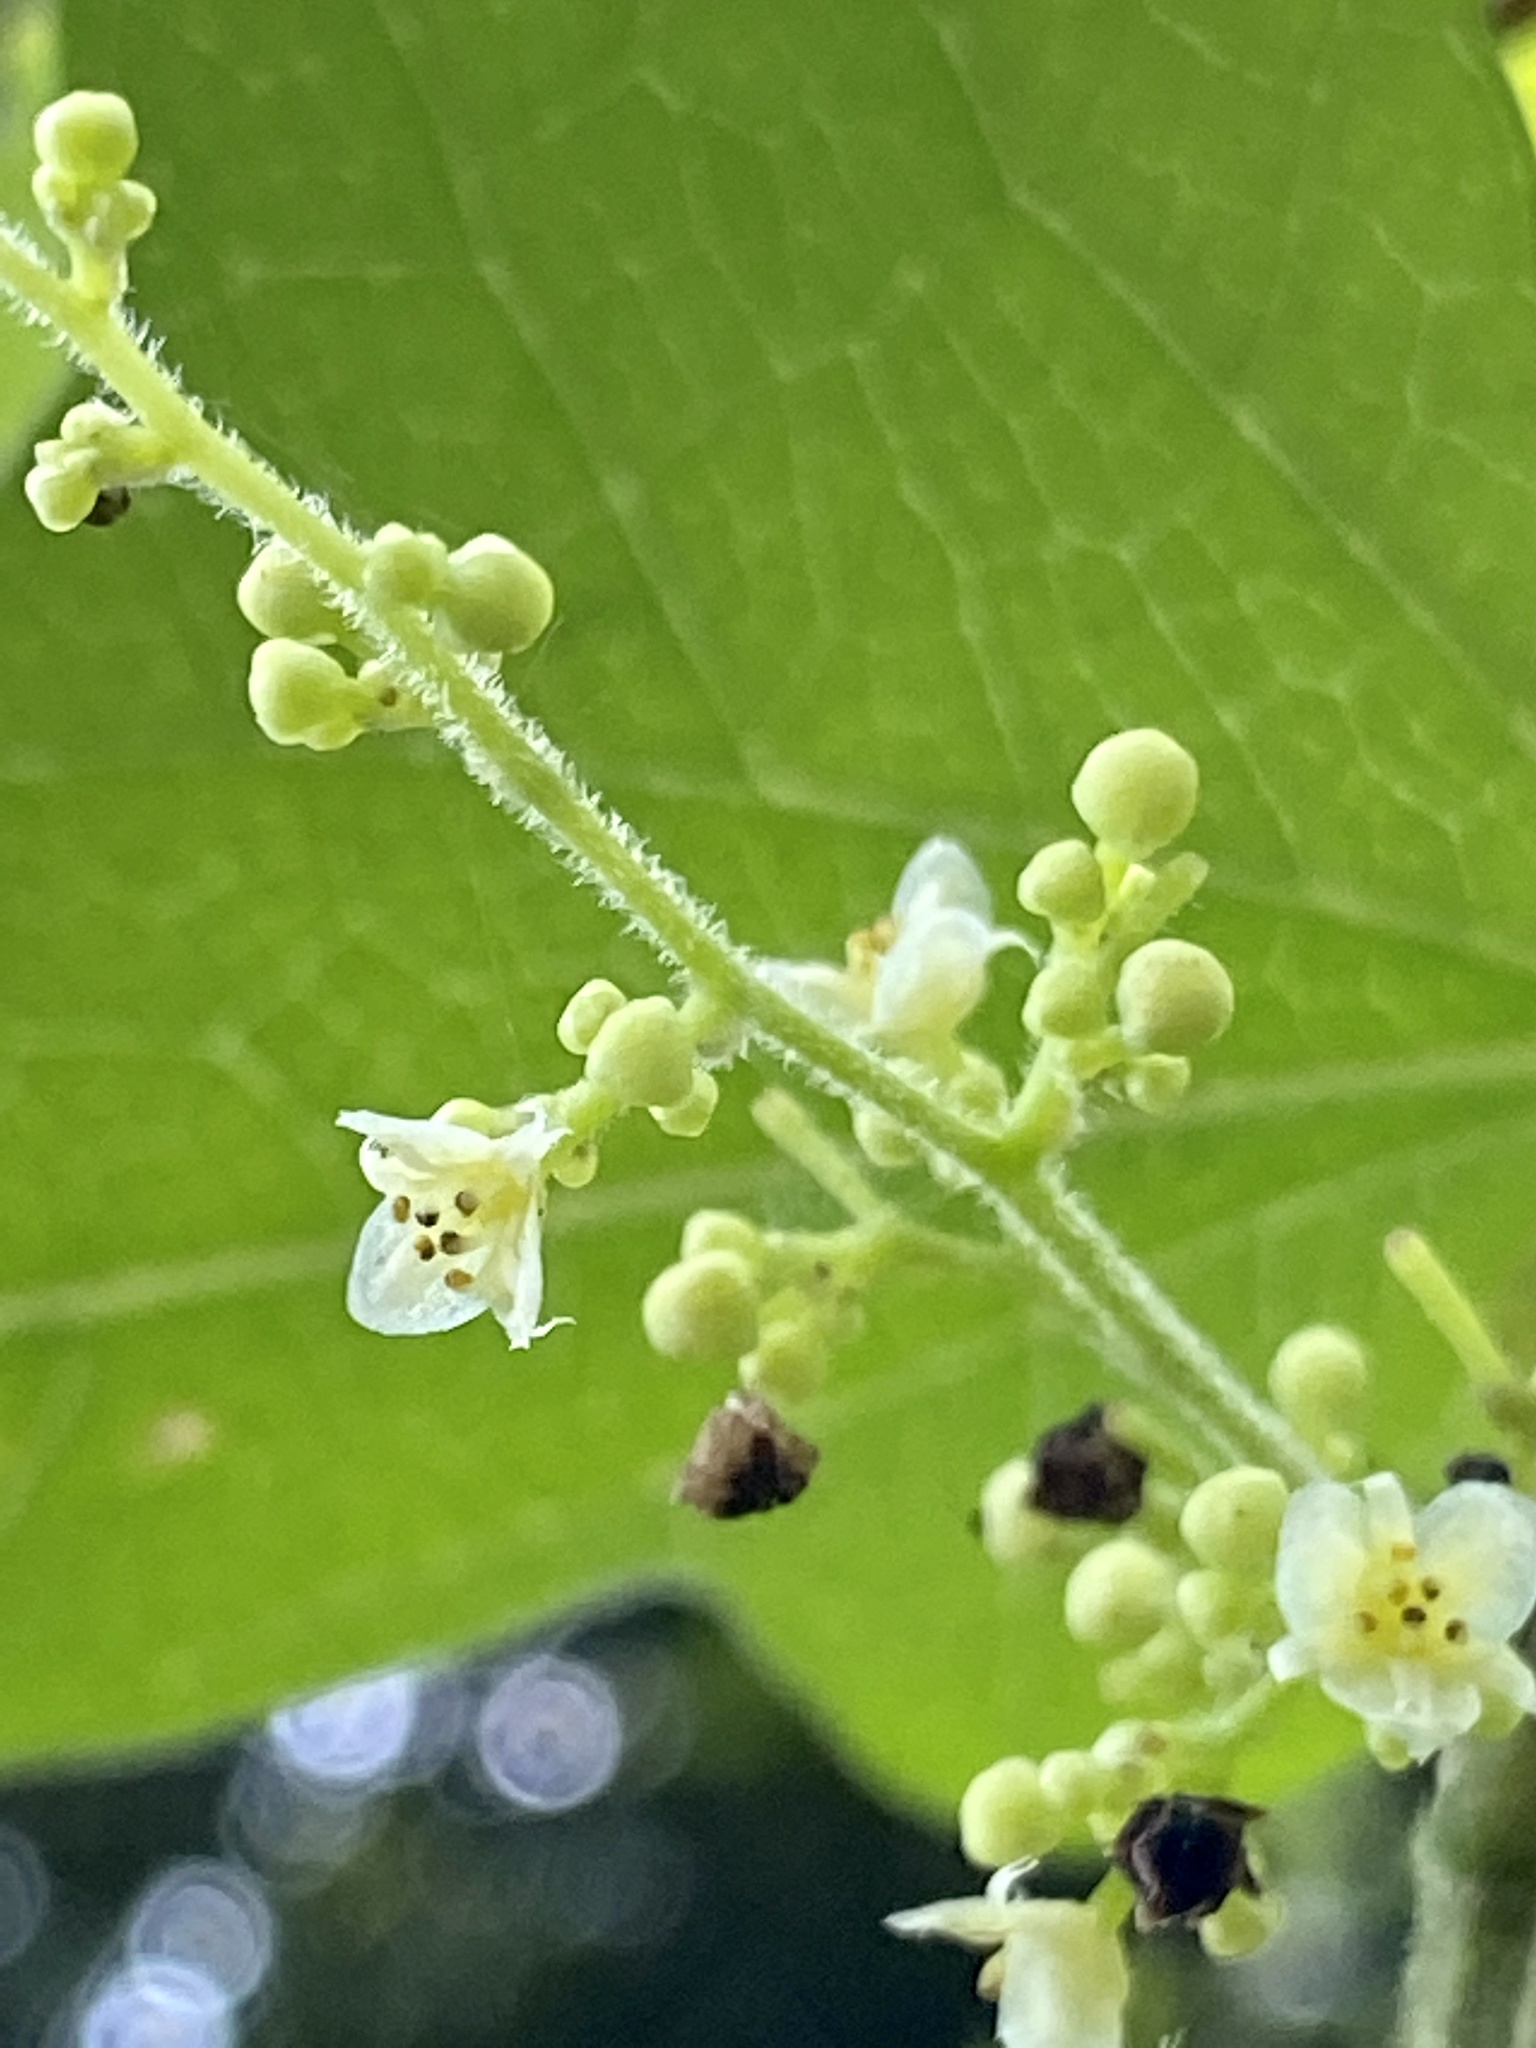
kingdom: Plantae
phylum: Tracheophyta
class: Magnoliopsida
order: Ranunculales
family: Menispermaceae
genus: Cocculus
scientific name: Cocculus orbiculatus
